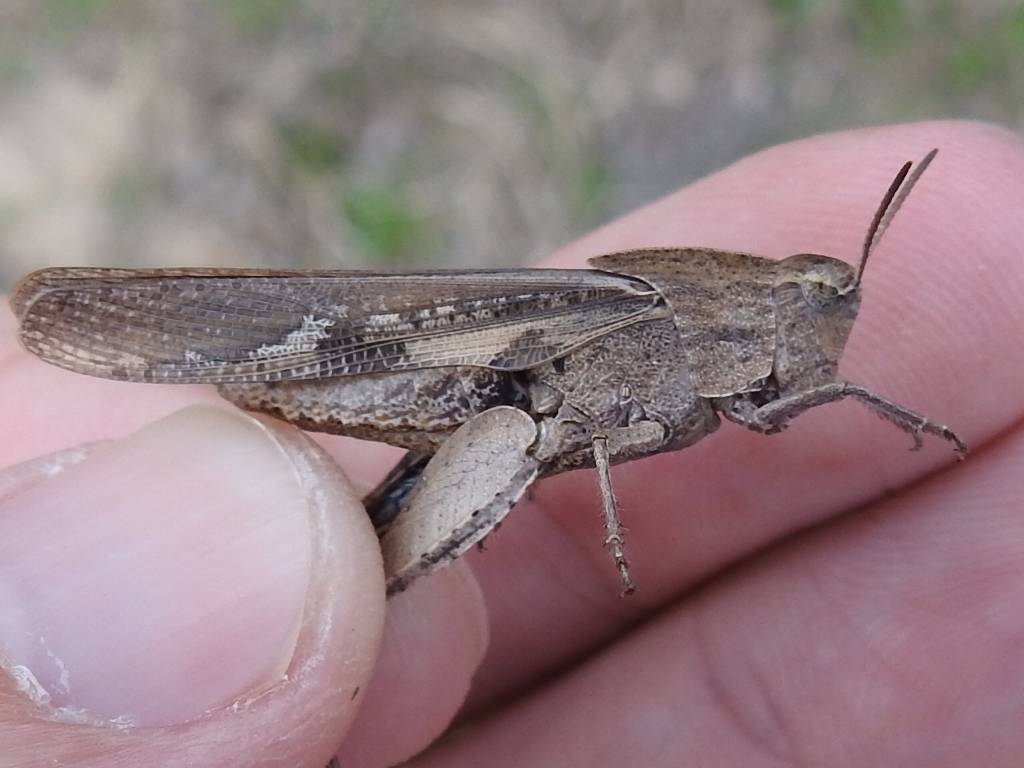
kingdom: Animalia
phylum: Arthropoda
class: Insecta
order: Orthoptera
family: Acrididae
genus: Chortophaga
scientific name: Chortophaga viridifasciata
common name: Green-striped grasshopper
